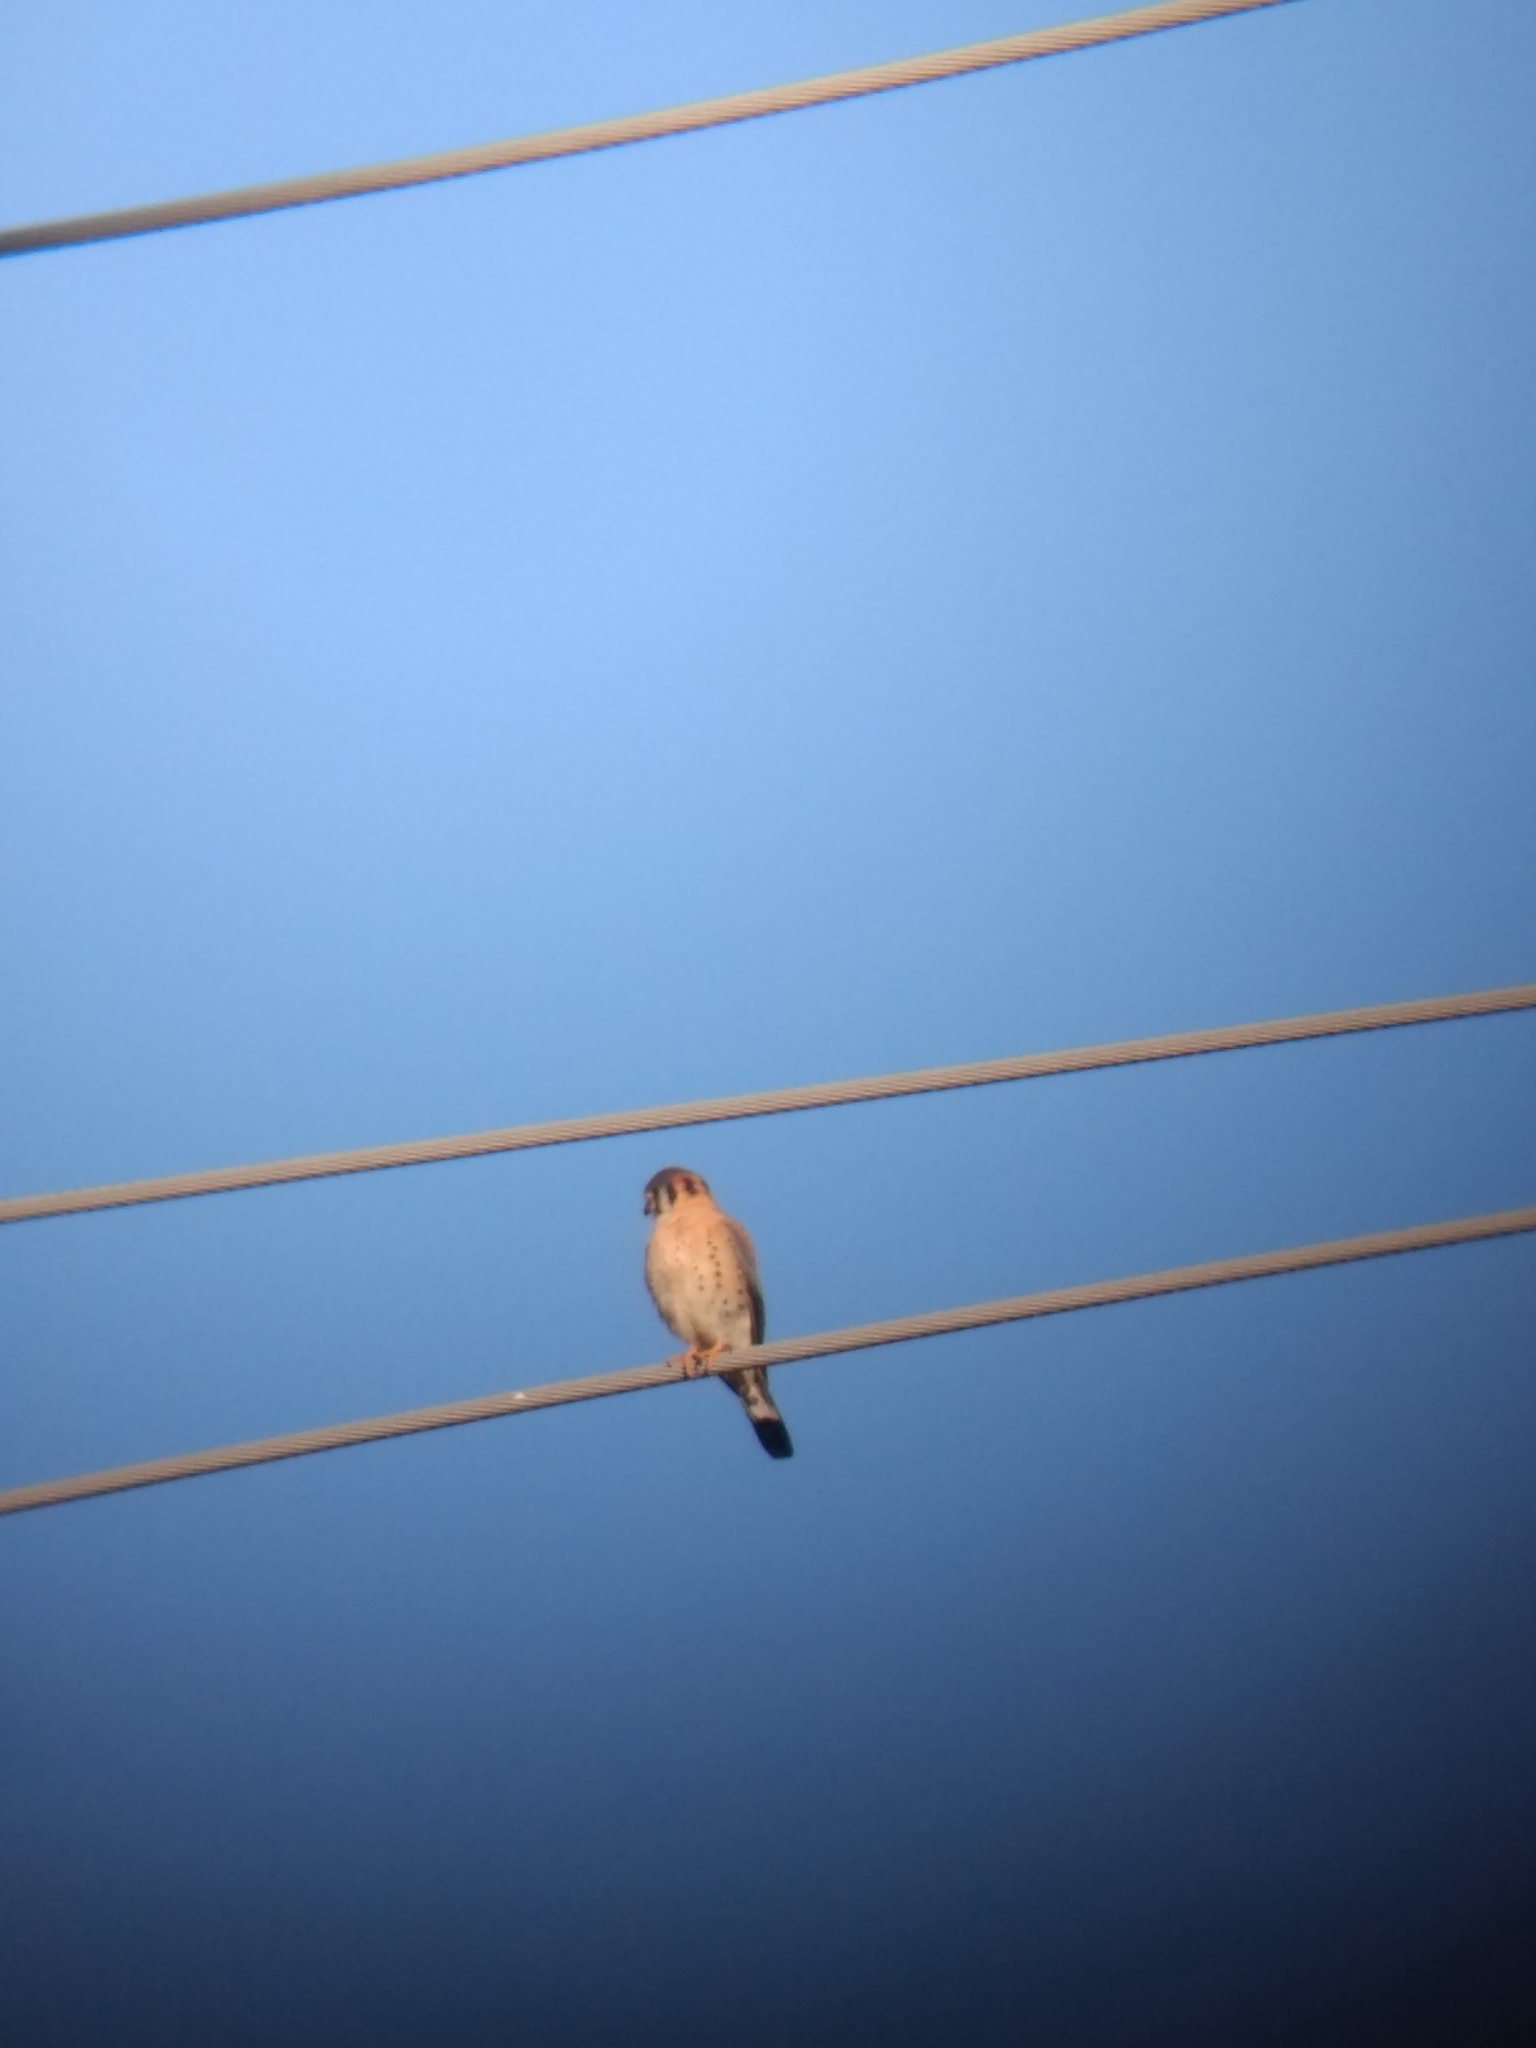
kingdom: Animalia
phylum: Chordata
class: Aves
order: Falconiformes
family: Falconidae
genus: Falco
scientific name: Falco sparverius
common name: American kestrel
